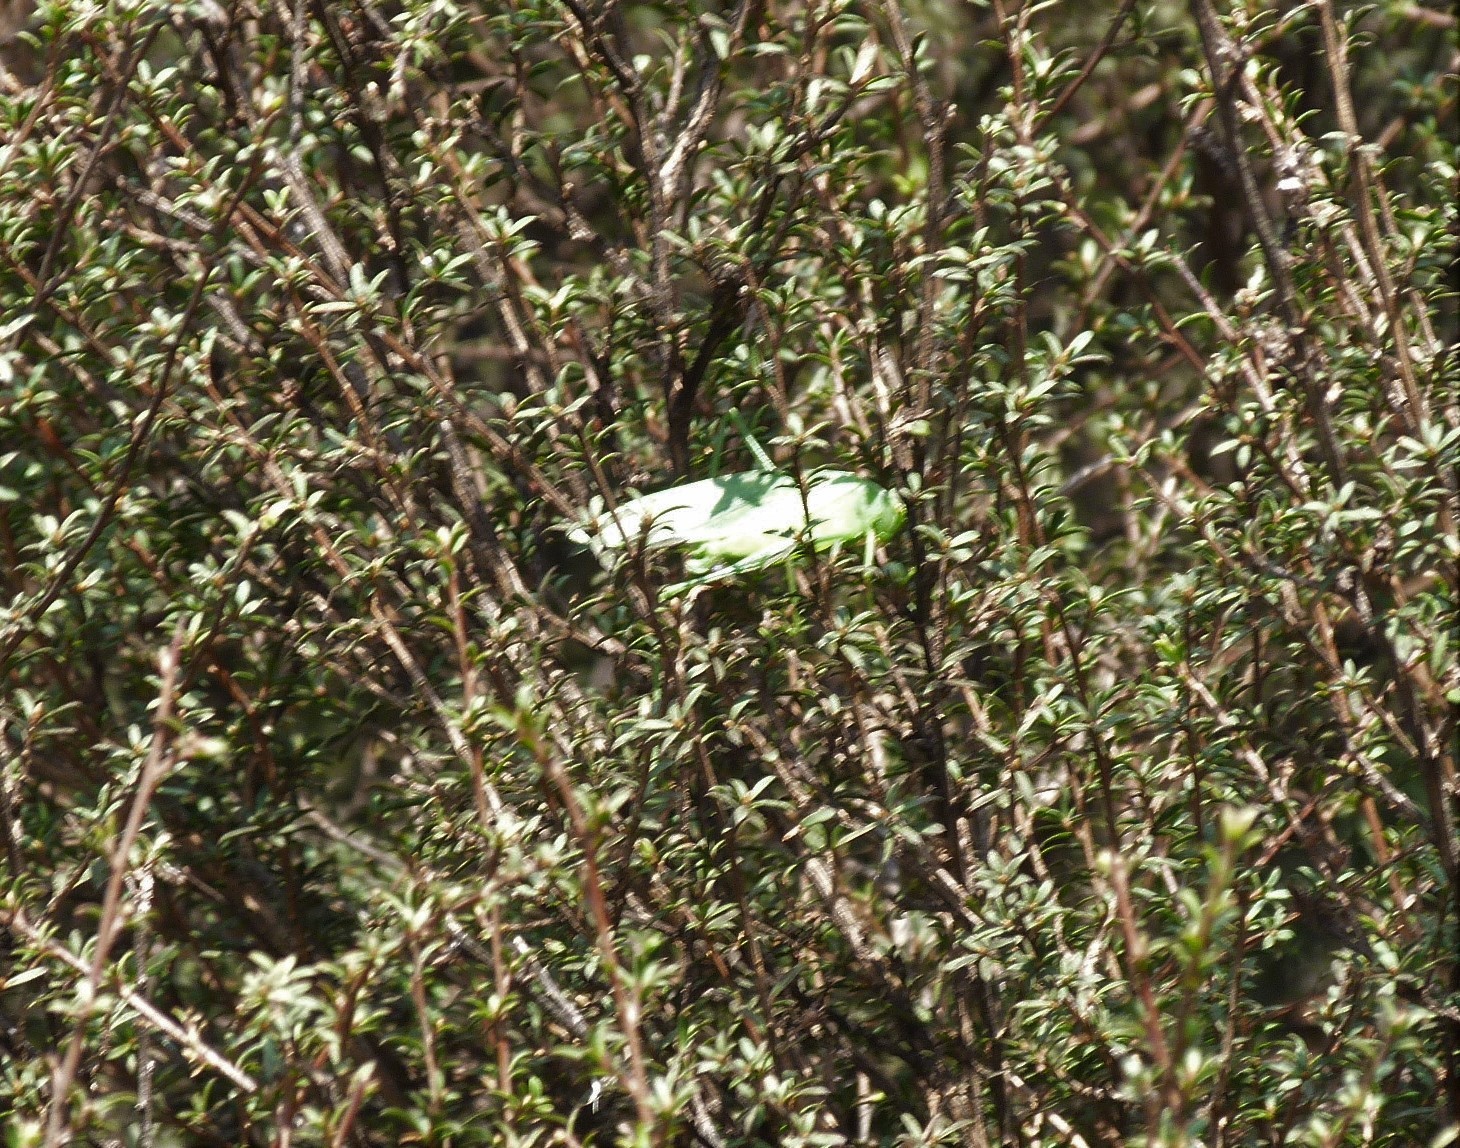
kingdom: Animalia
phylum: Arthropoda
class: Insecta
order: Orthoptera
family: Tettigoniidae
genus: Caedicia
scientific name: Caedicia simplex
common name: Common garden katydid
